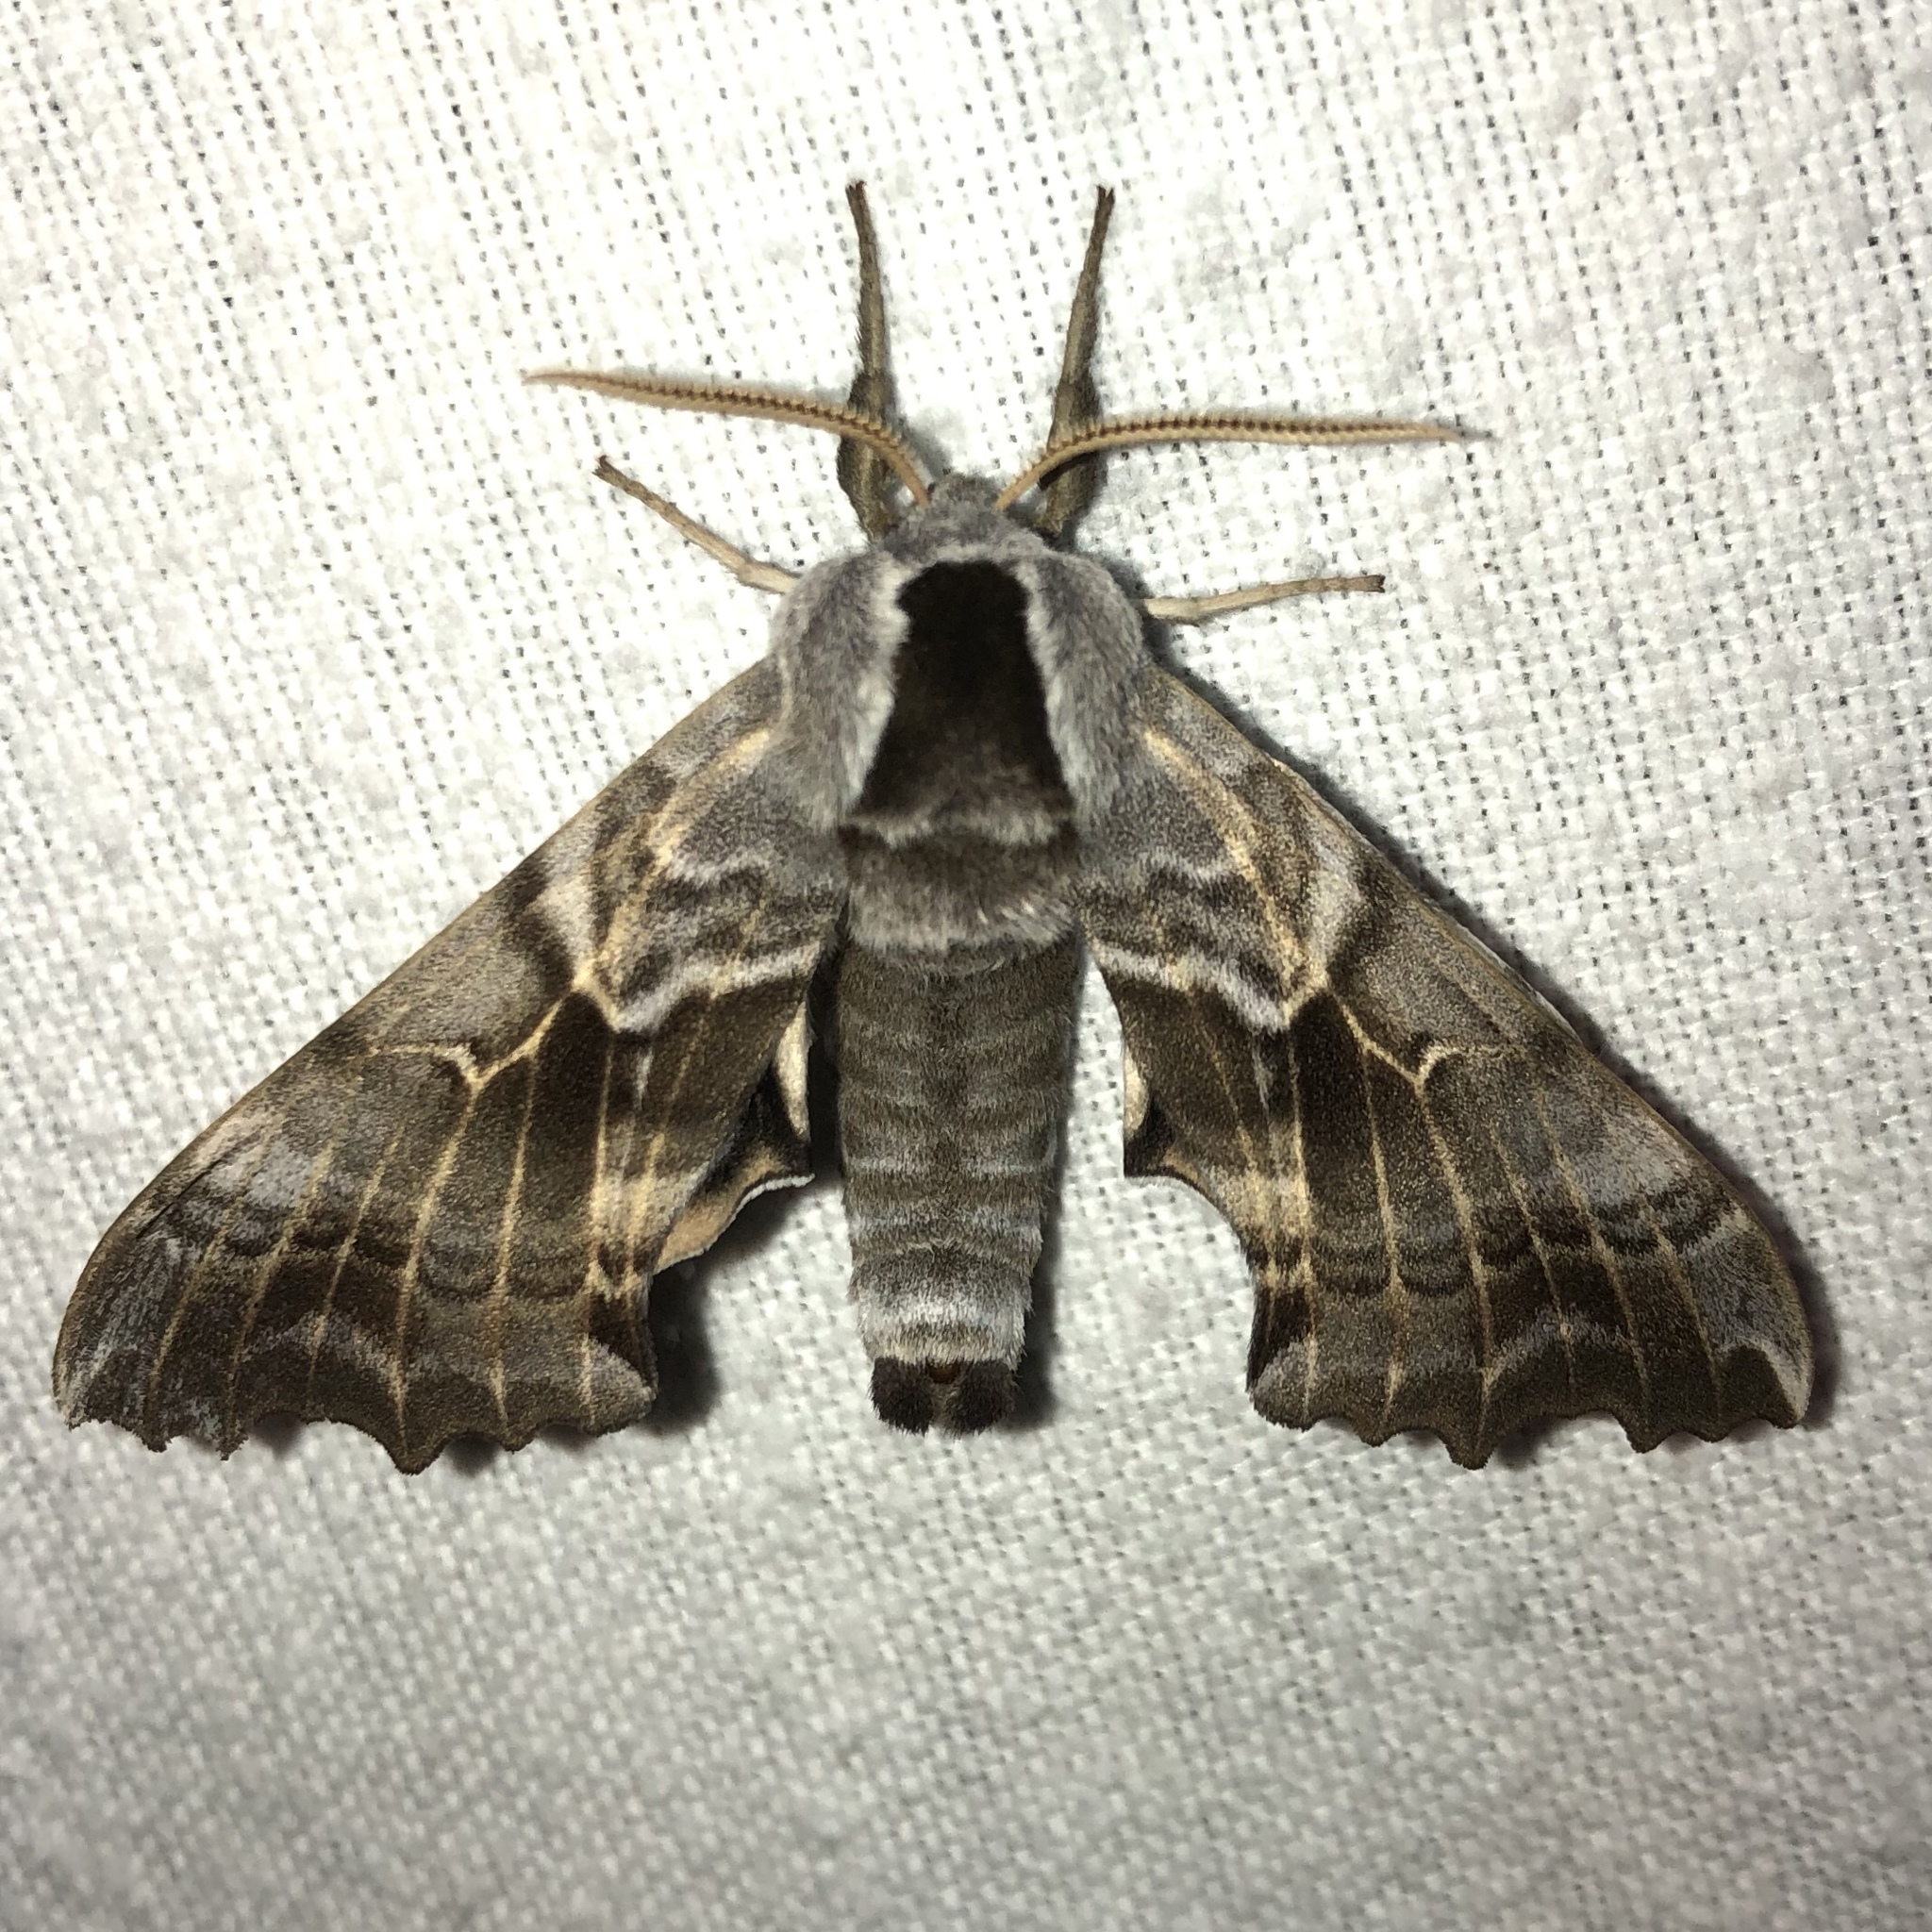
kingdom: Animalia
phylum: Arthropoda
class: Insecta
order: Lepidoptera
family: Sphingidae
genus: Smerinthus
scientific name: Smerinthus cerisyi
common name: Cerisy's sphinx moth
